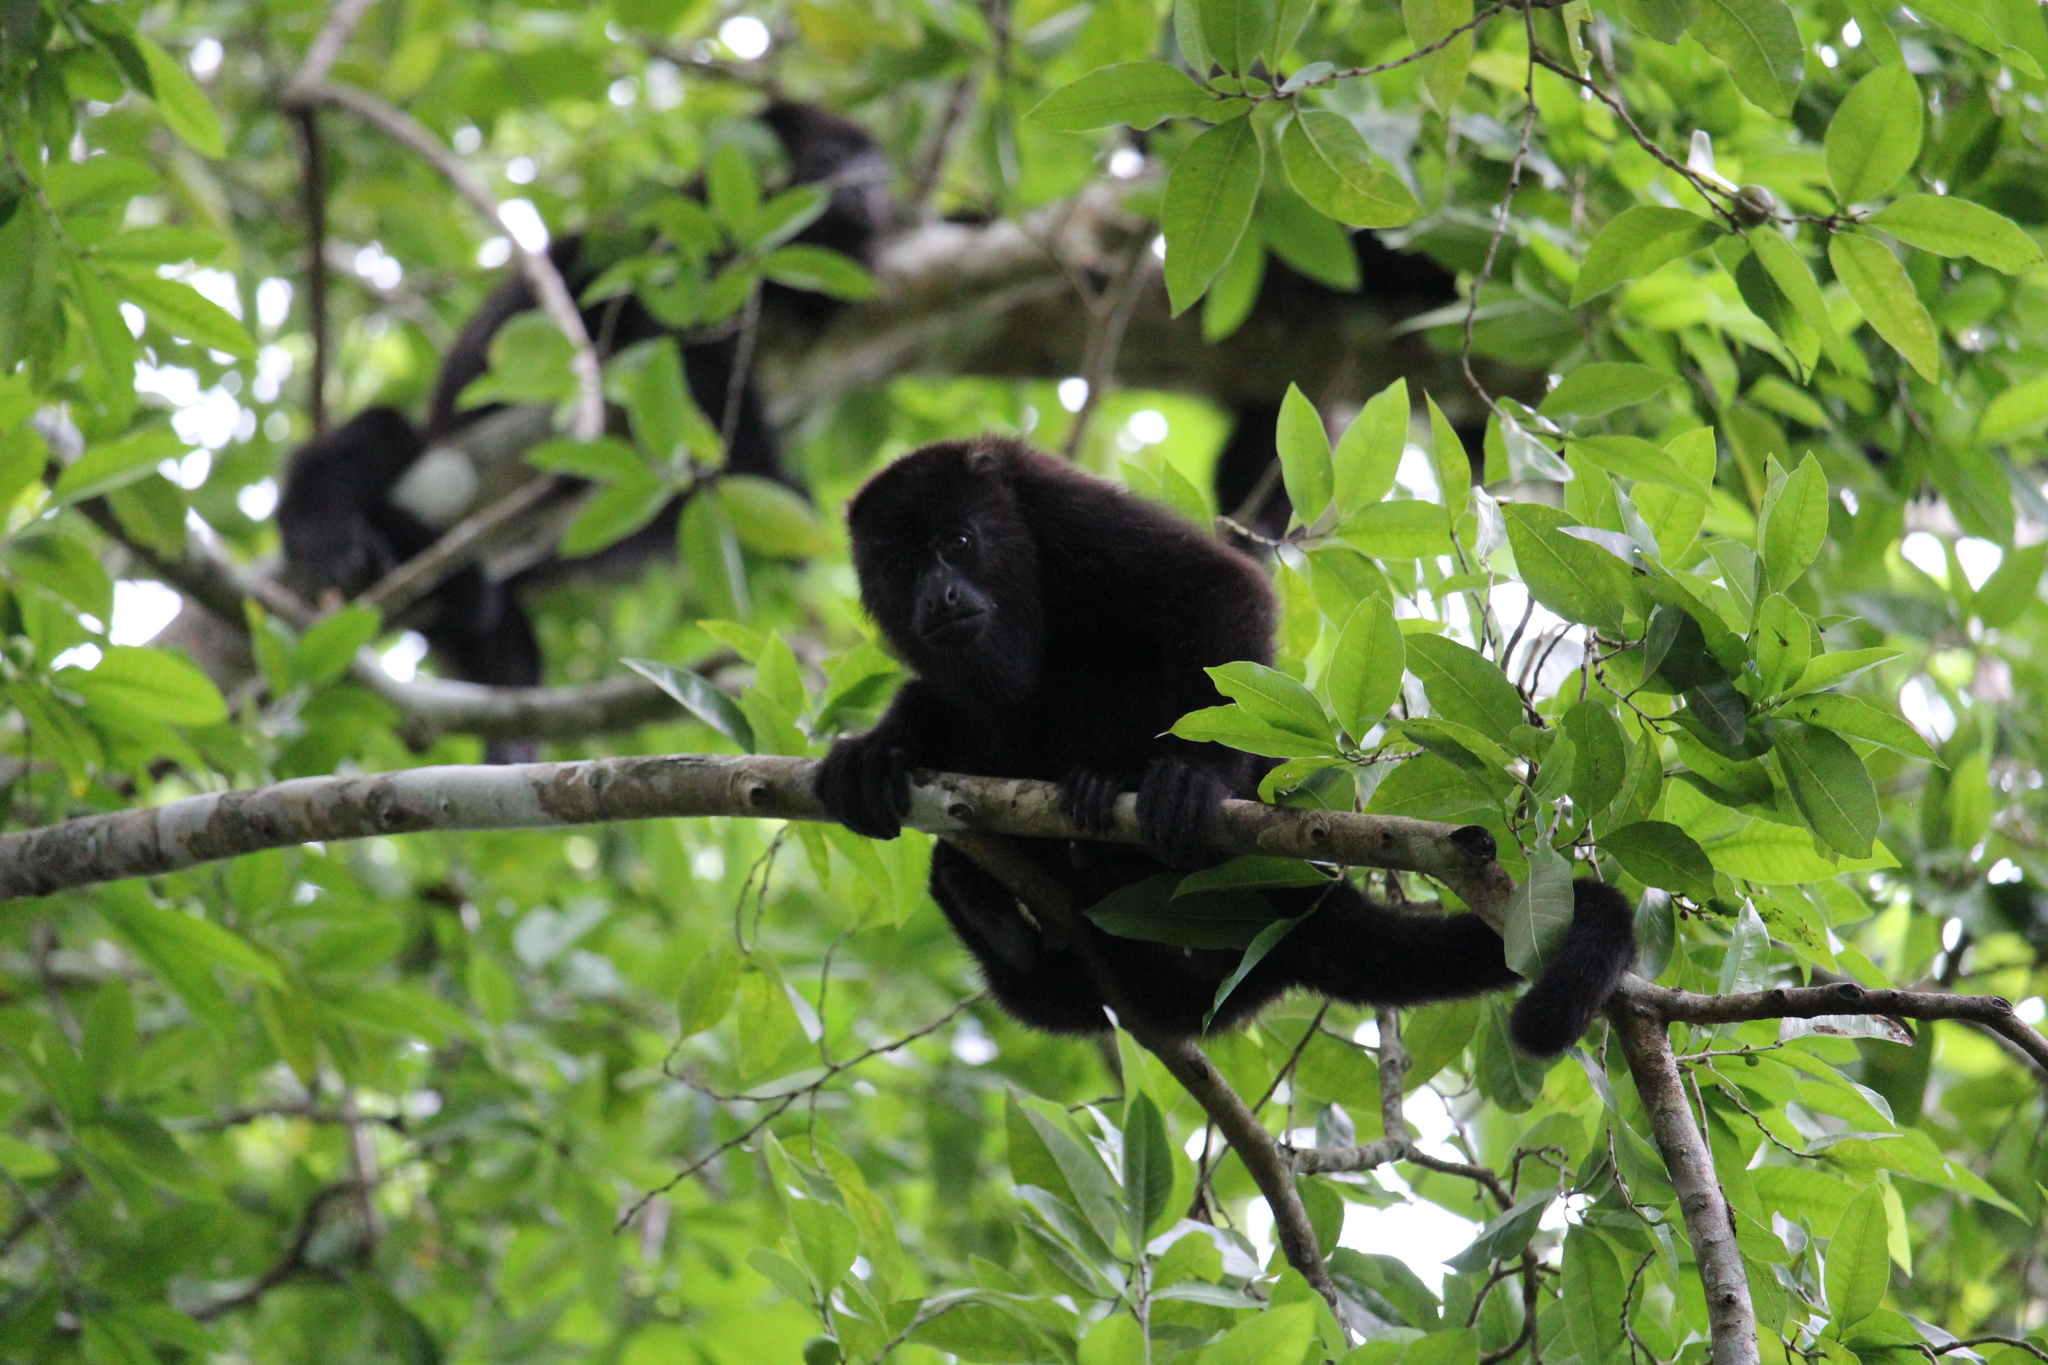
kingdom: Animalia
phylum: Chordata
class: Mammalia
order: Primates
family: Atelidae
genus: Alouatta
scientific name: Alouatta pigra
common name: Guatemalan black howler
